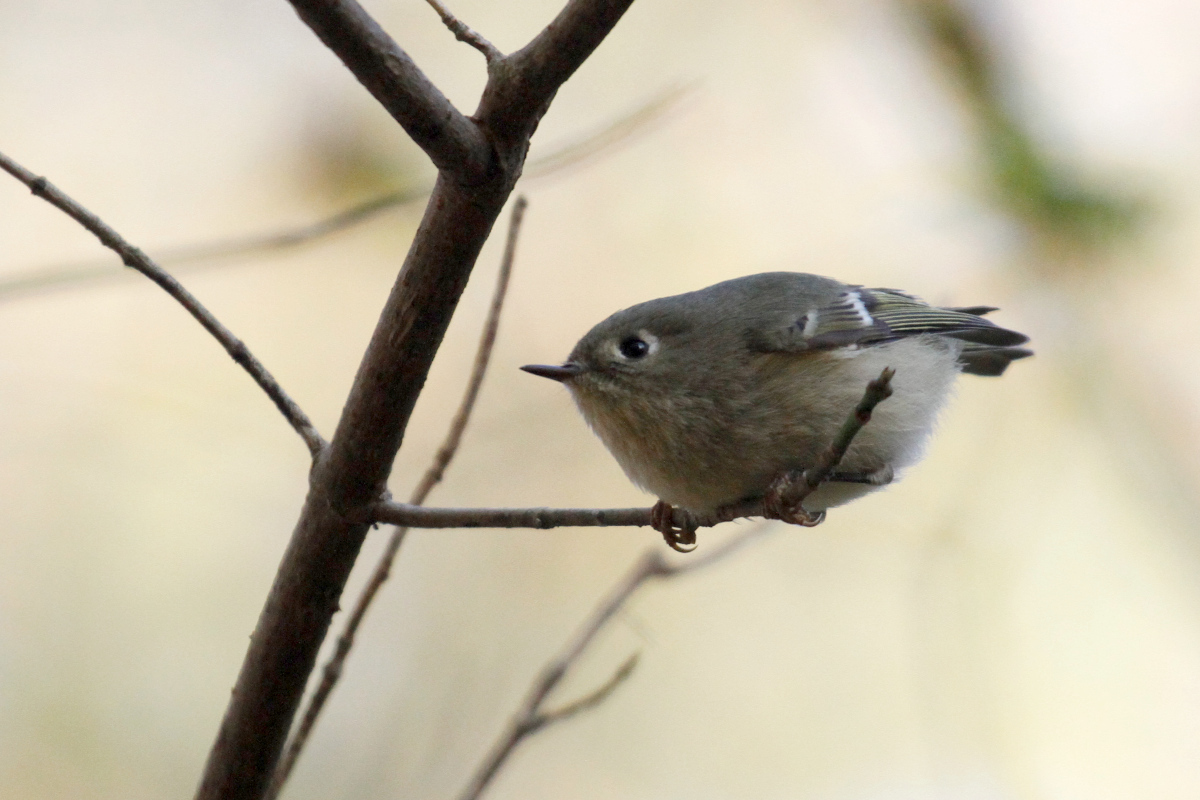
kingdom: Animalia
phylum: Chordata
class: Aves
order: Passeriformes
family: Regulidae
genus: Regulus
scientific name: Regulus calendula
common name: Ruby-crowned kinglet
